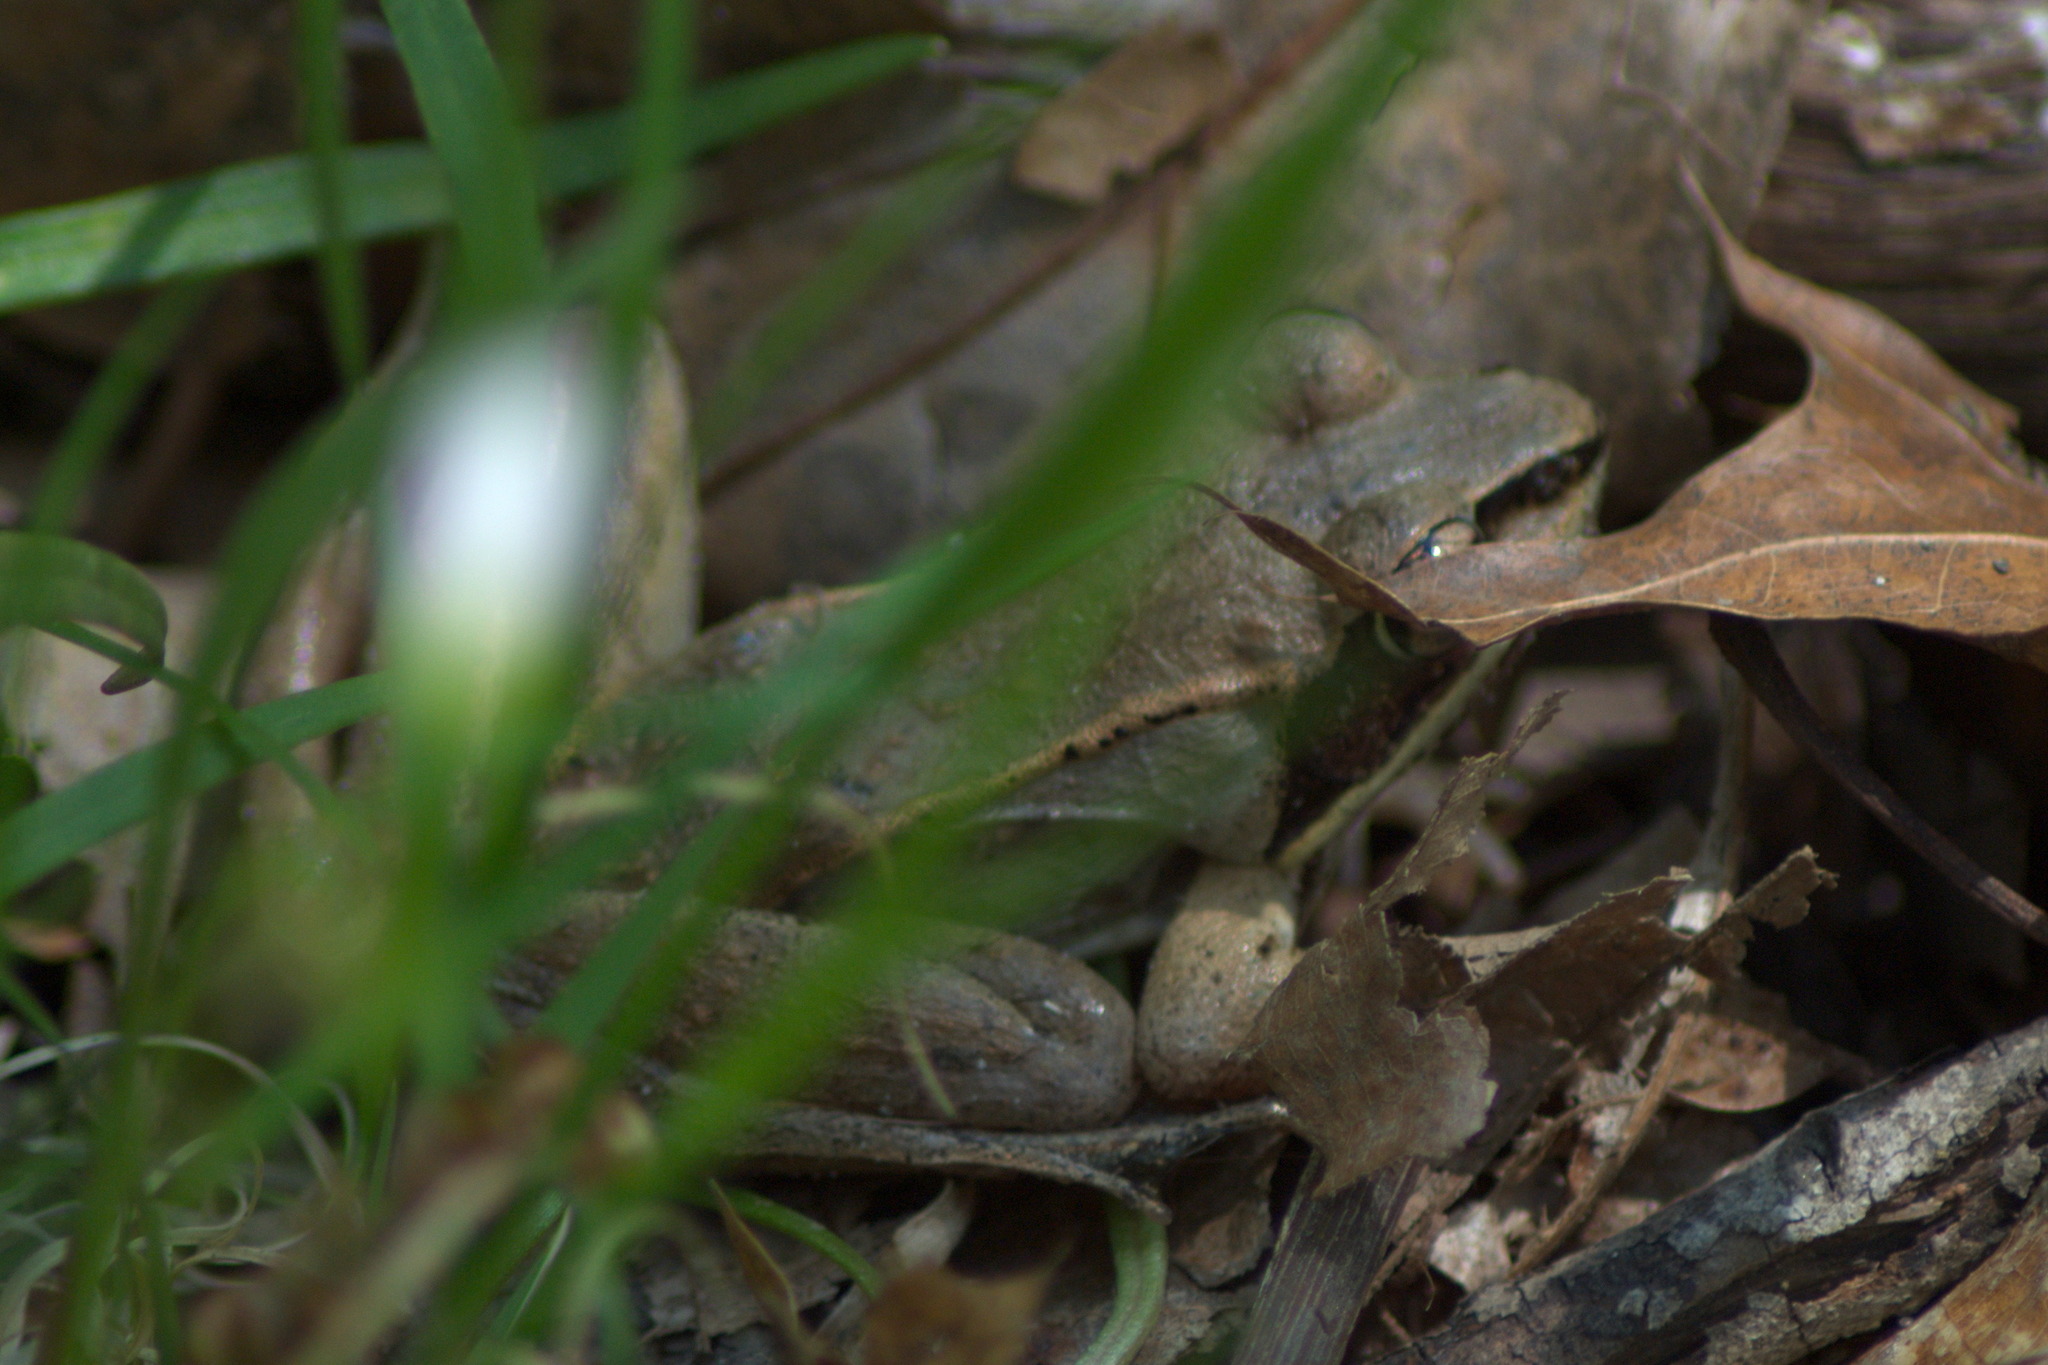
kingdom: Animalia
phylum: Chordata
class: Amphibia
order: Anura
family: Ranidae
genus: Lithobates
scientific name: Lithobates sylvaticus
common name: Wood frog
